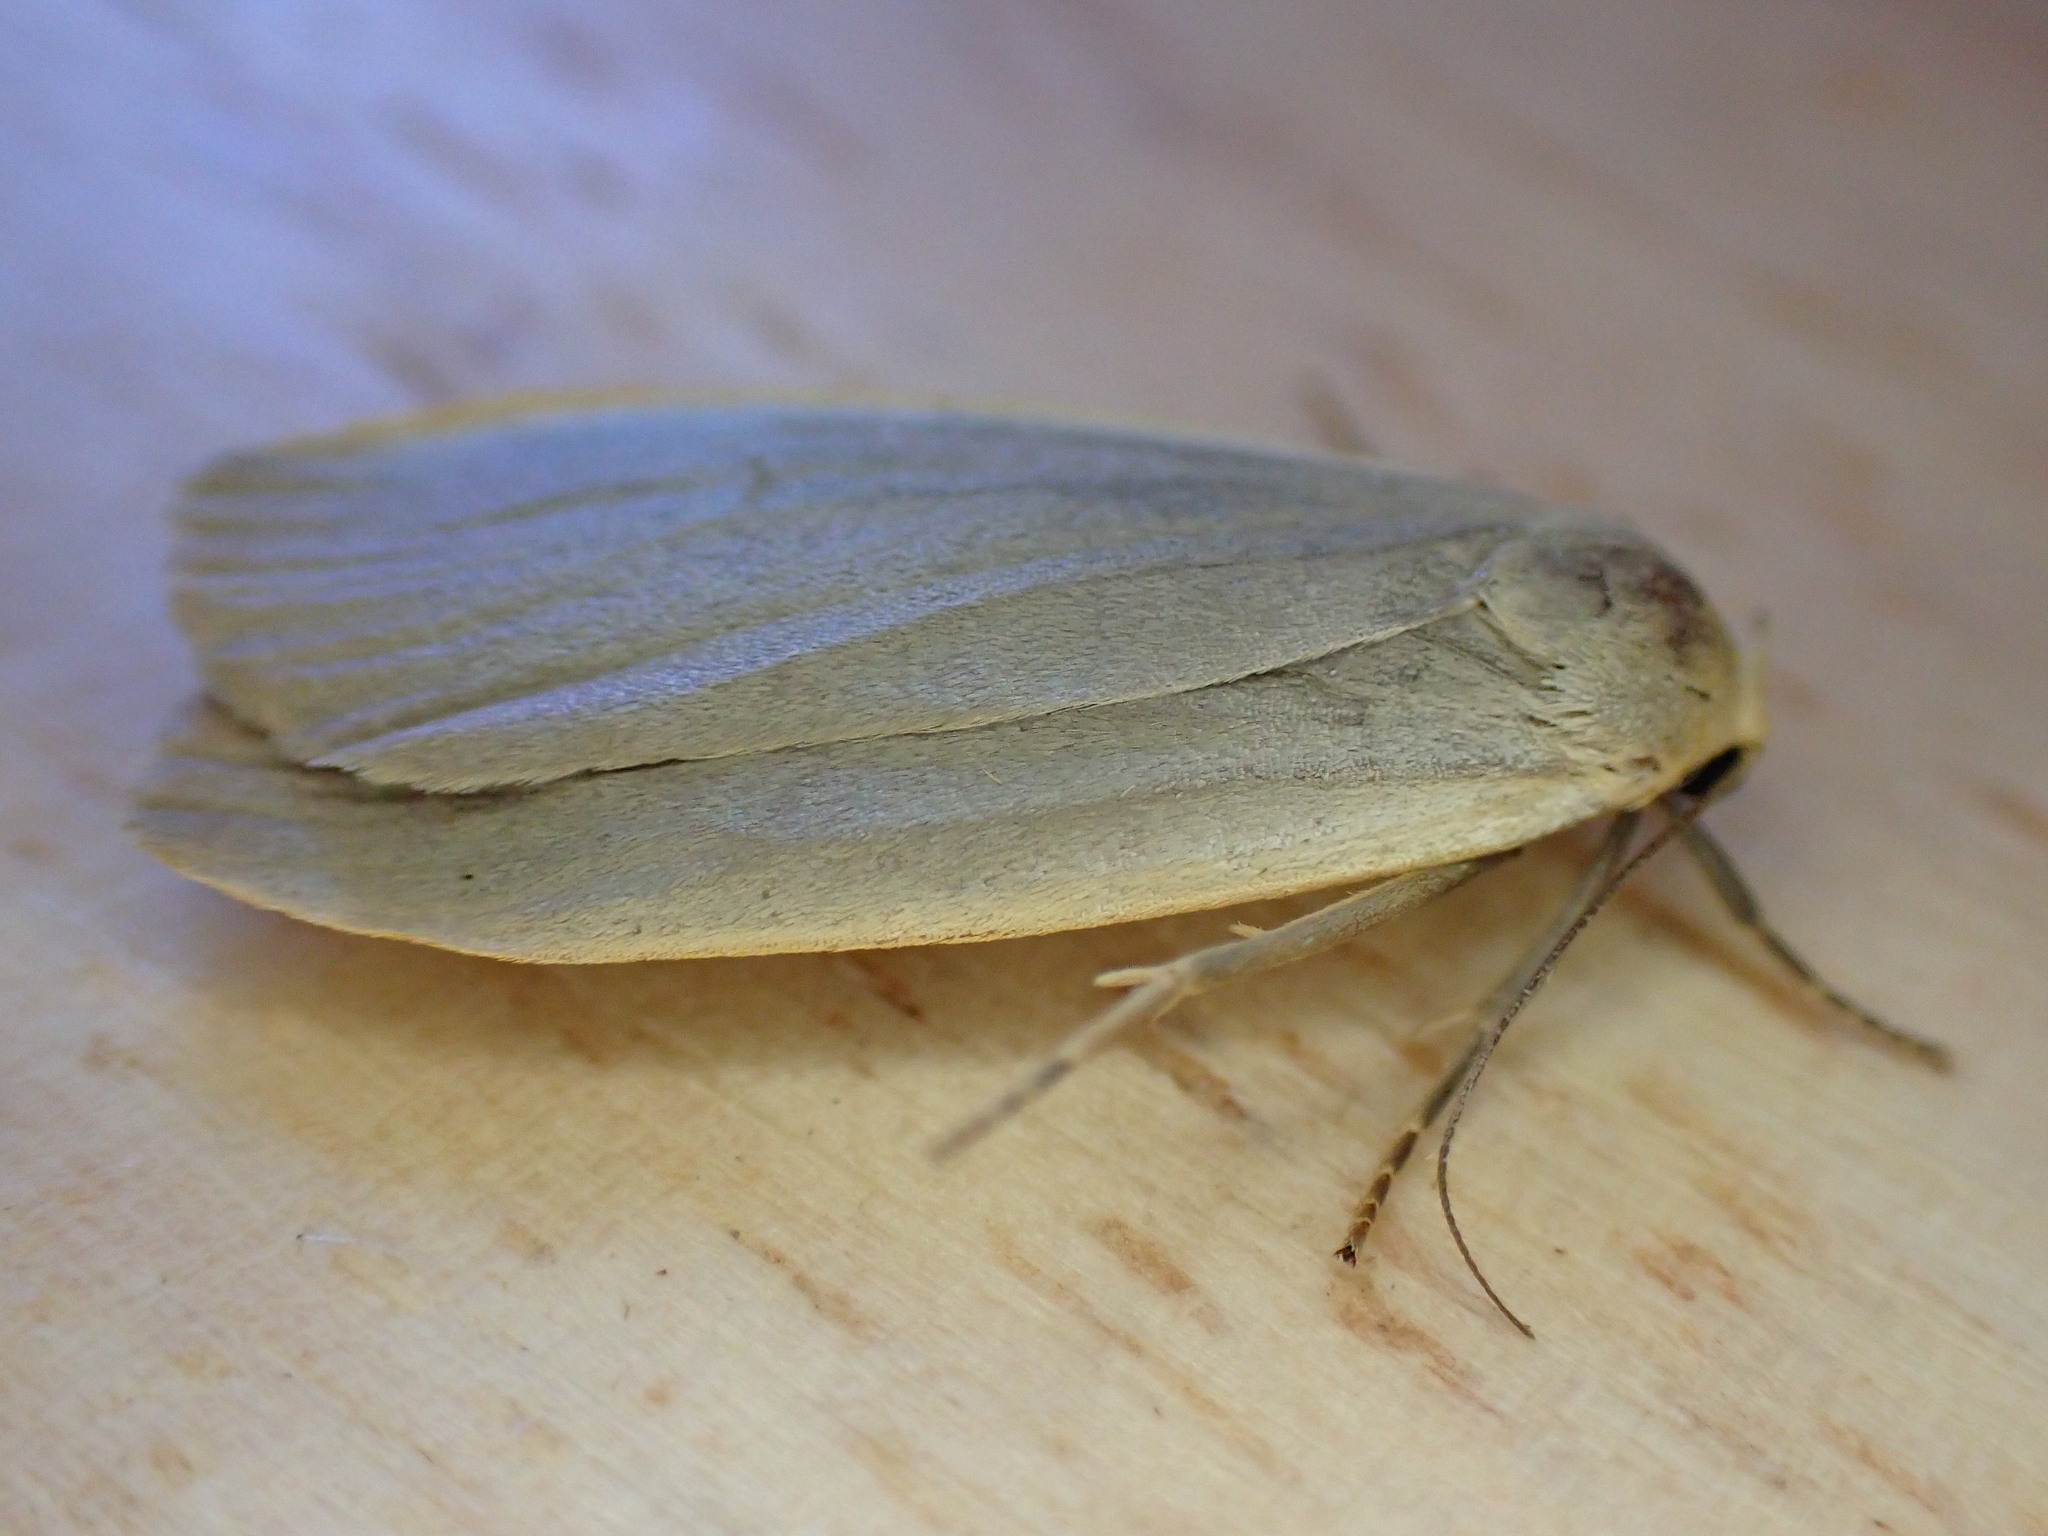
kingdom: Animalia
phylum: Arthropoda
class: Insecta
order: Lepidoptera
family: Erebidae
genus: Collita
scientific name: Collita griseola
